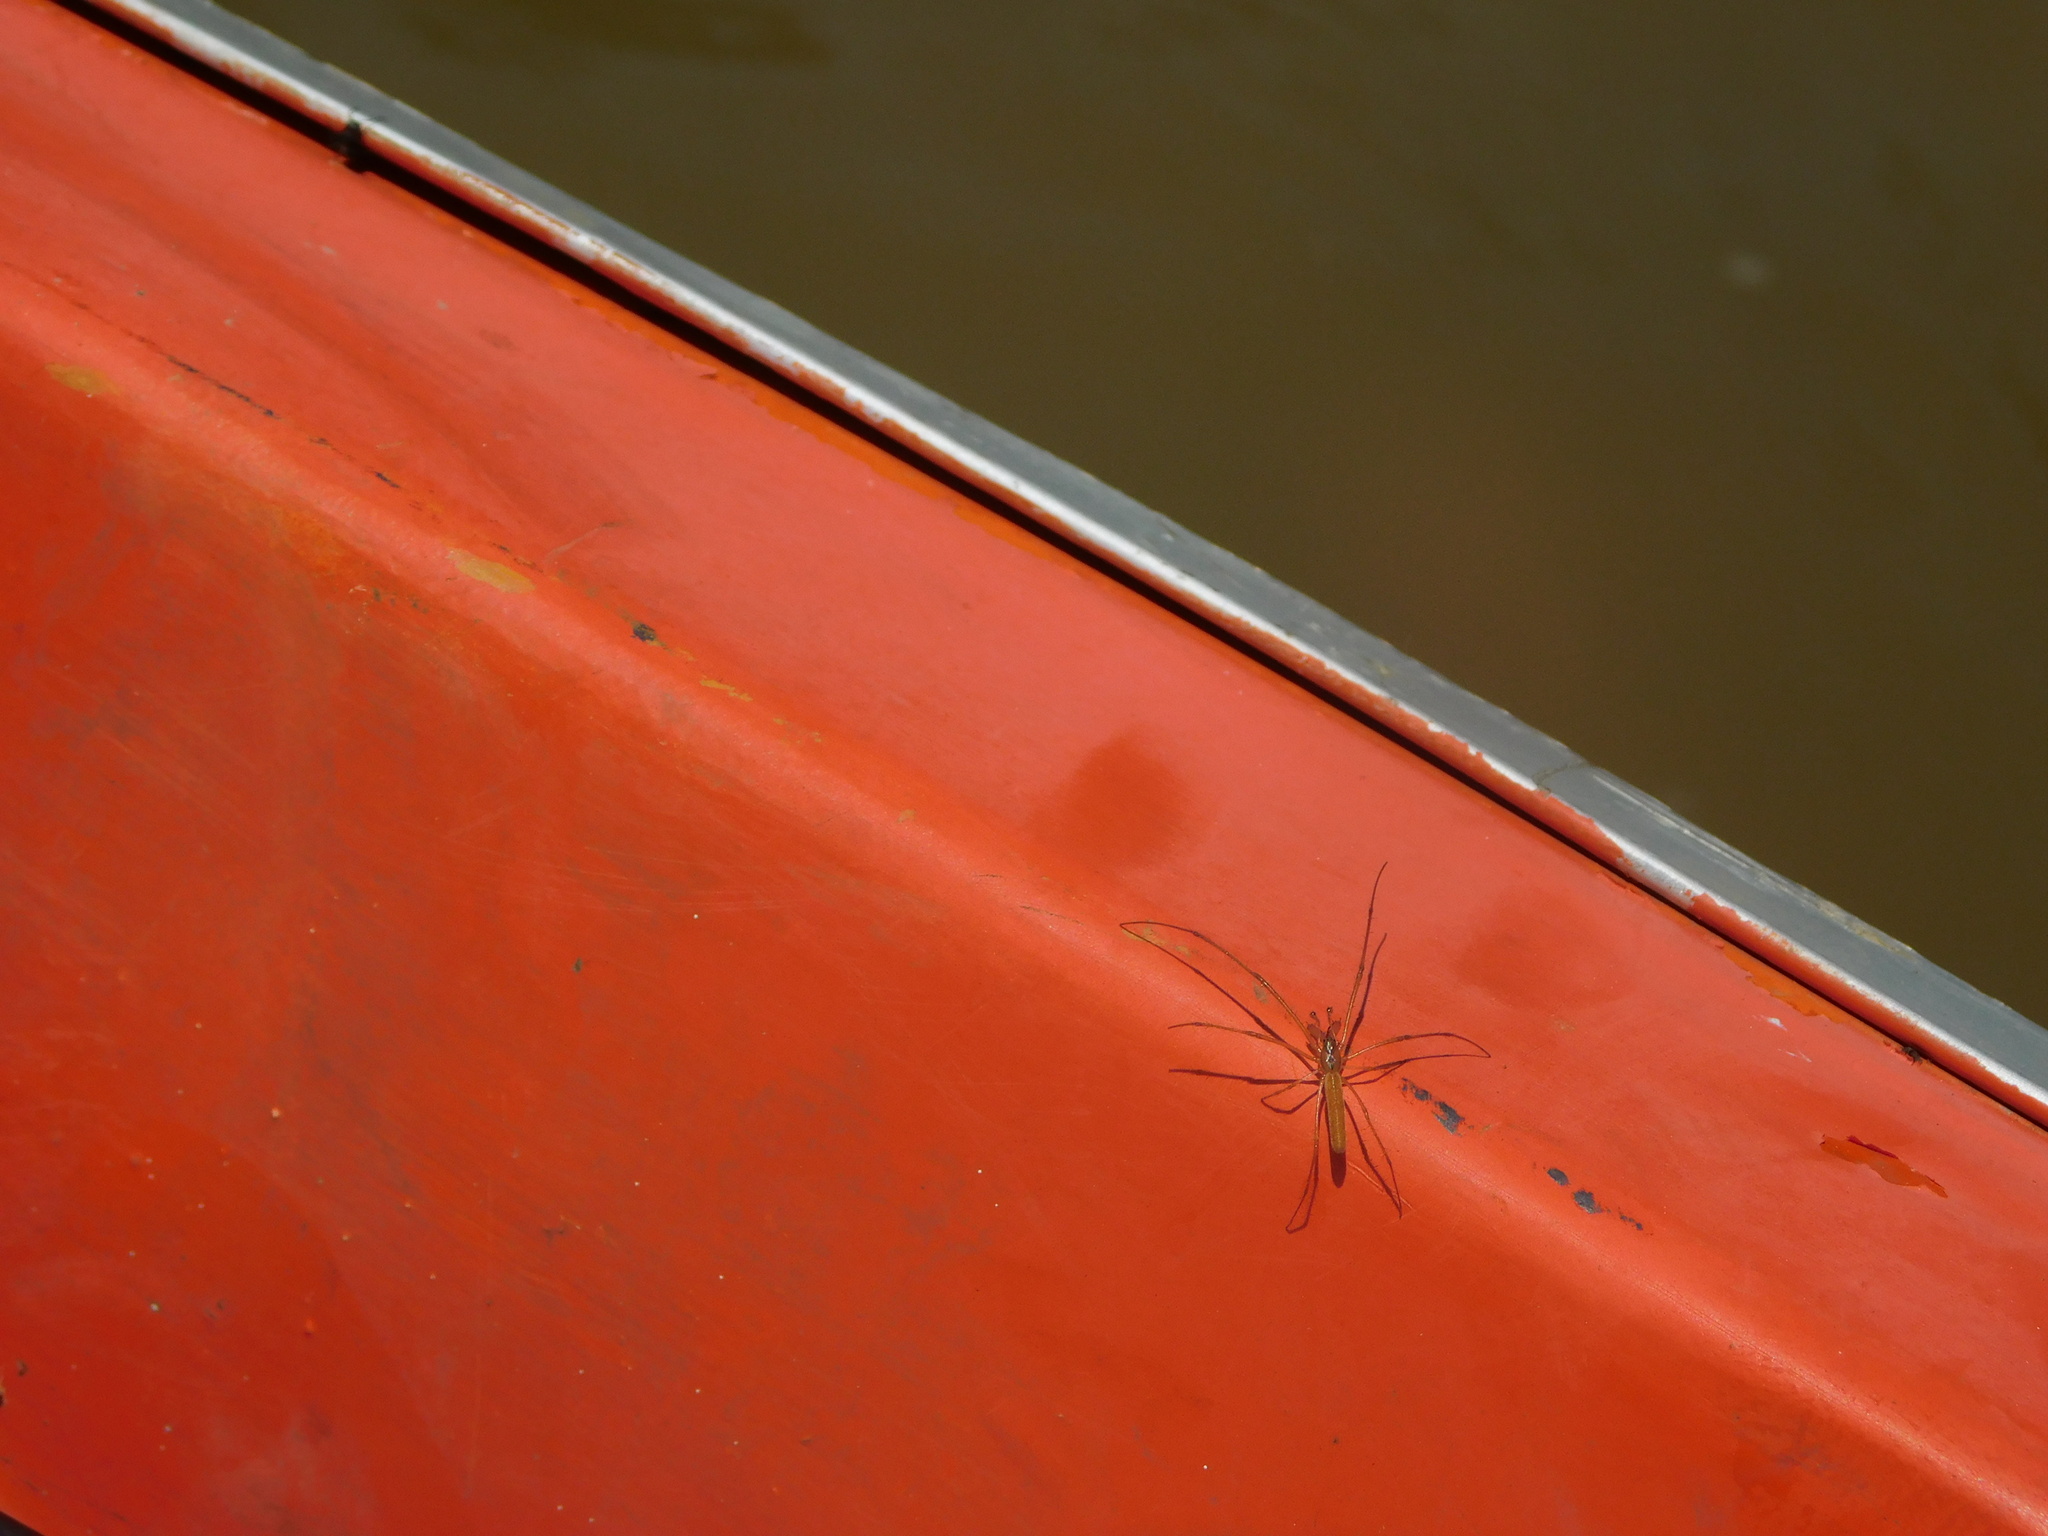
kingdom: Animalia
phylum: Arthropoda
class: Arachnida
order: Araneae
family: Tetragnathidae
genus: Tetragnatha
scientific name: Tetragnatha
